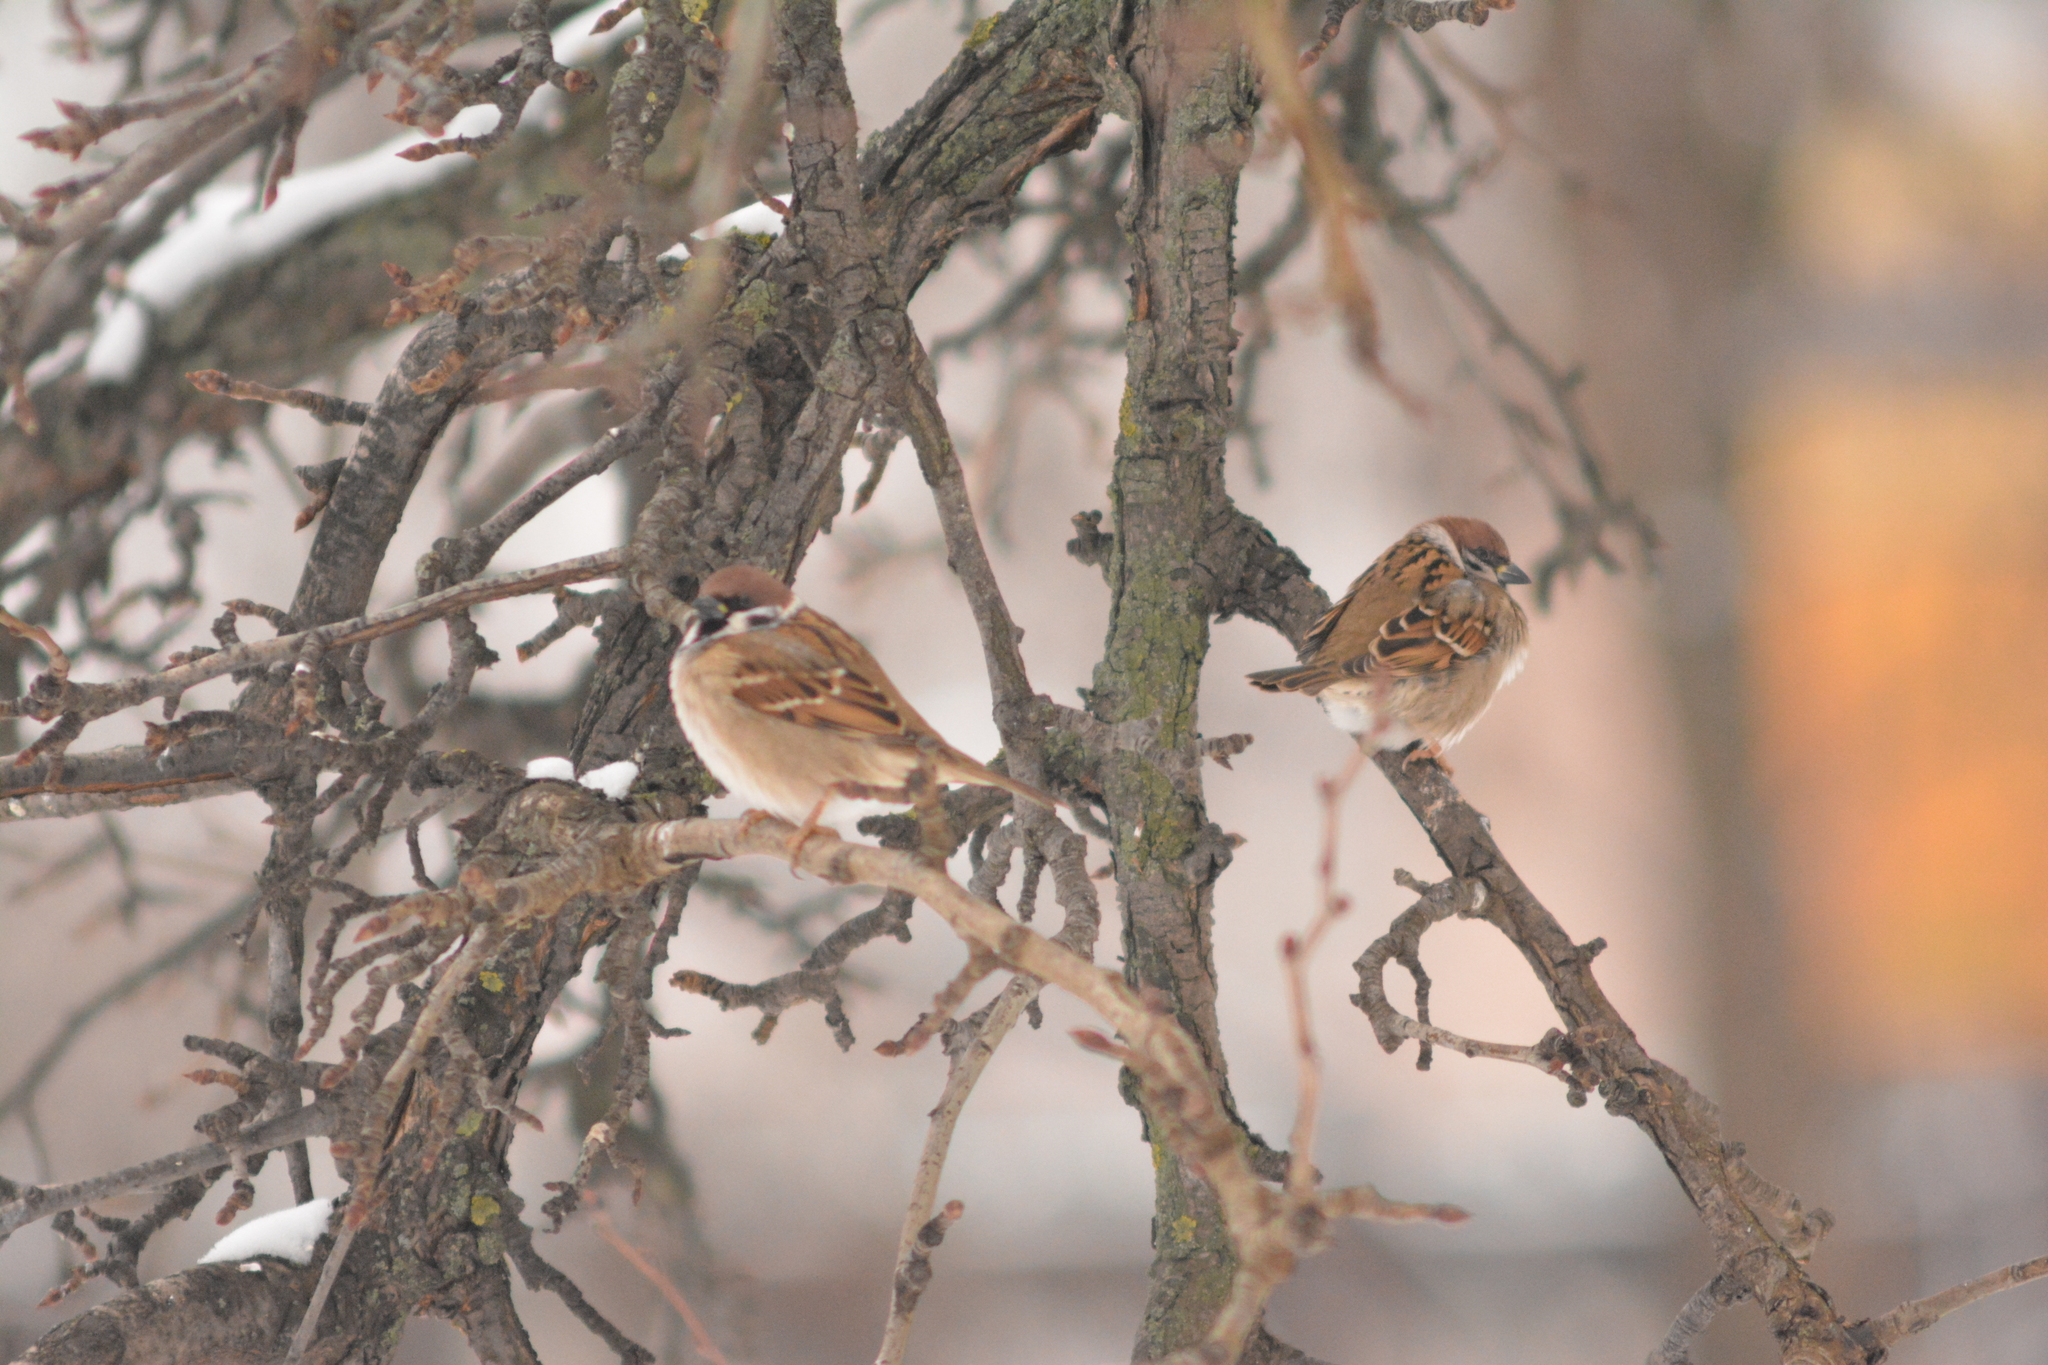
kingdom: Animalia
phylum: Chordata
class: Aves
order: Passeriformes
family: Passeridae
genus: Passer
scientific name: Passer montanus
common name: Eurasian tree sparrow
